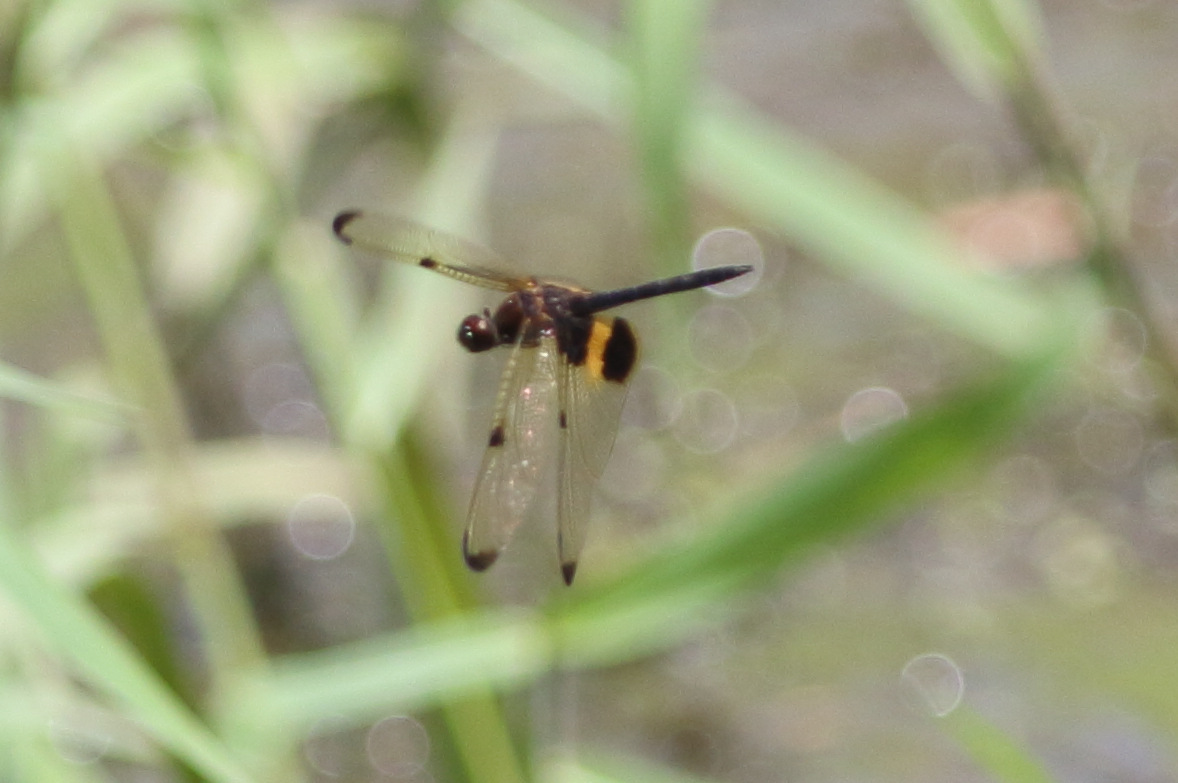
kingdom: Animalia
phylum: Arthropoda
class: Insecta
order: Odonata
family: Libellulidae
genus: Rhyothemis
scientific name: Rhyothemis phyllis
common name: Yellow-barred flutterer
